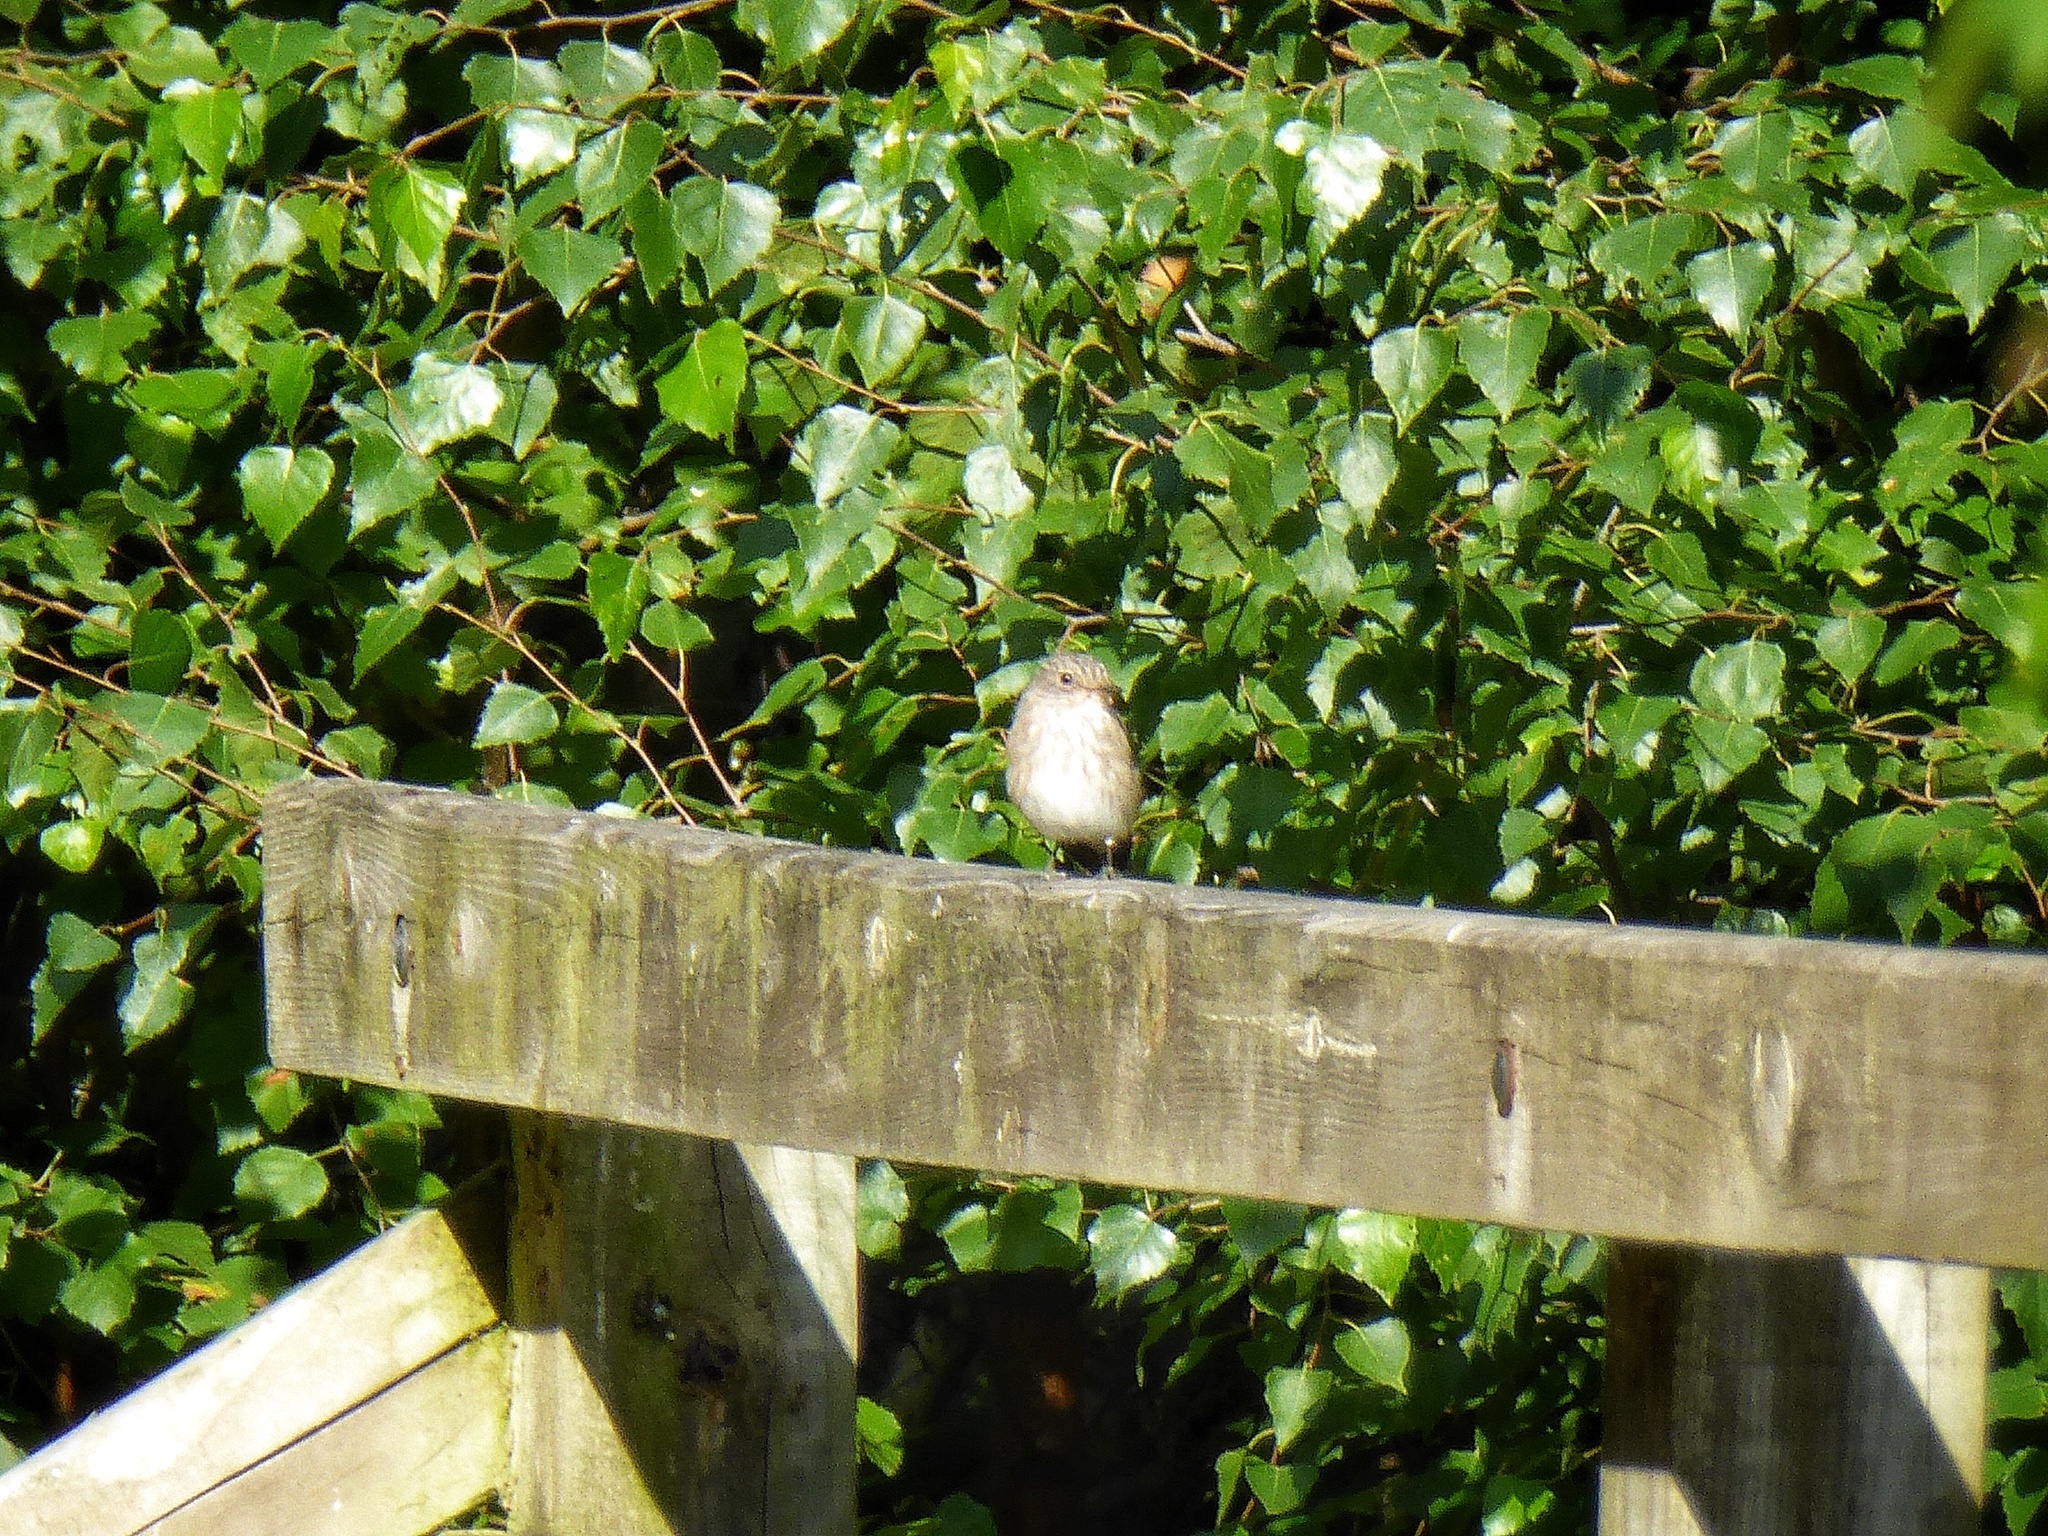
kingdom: Animalia
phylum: Chordata
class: Aves
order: Passeriformes
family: Muscicapidae
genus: Muscicapa
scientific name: Muscicapa striata
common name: Spotted flycatcher
